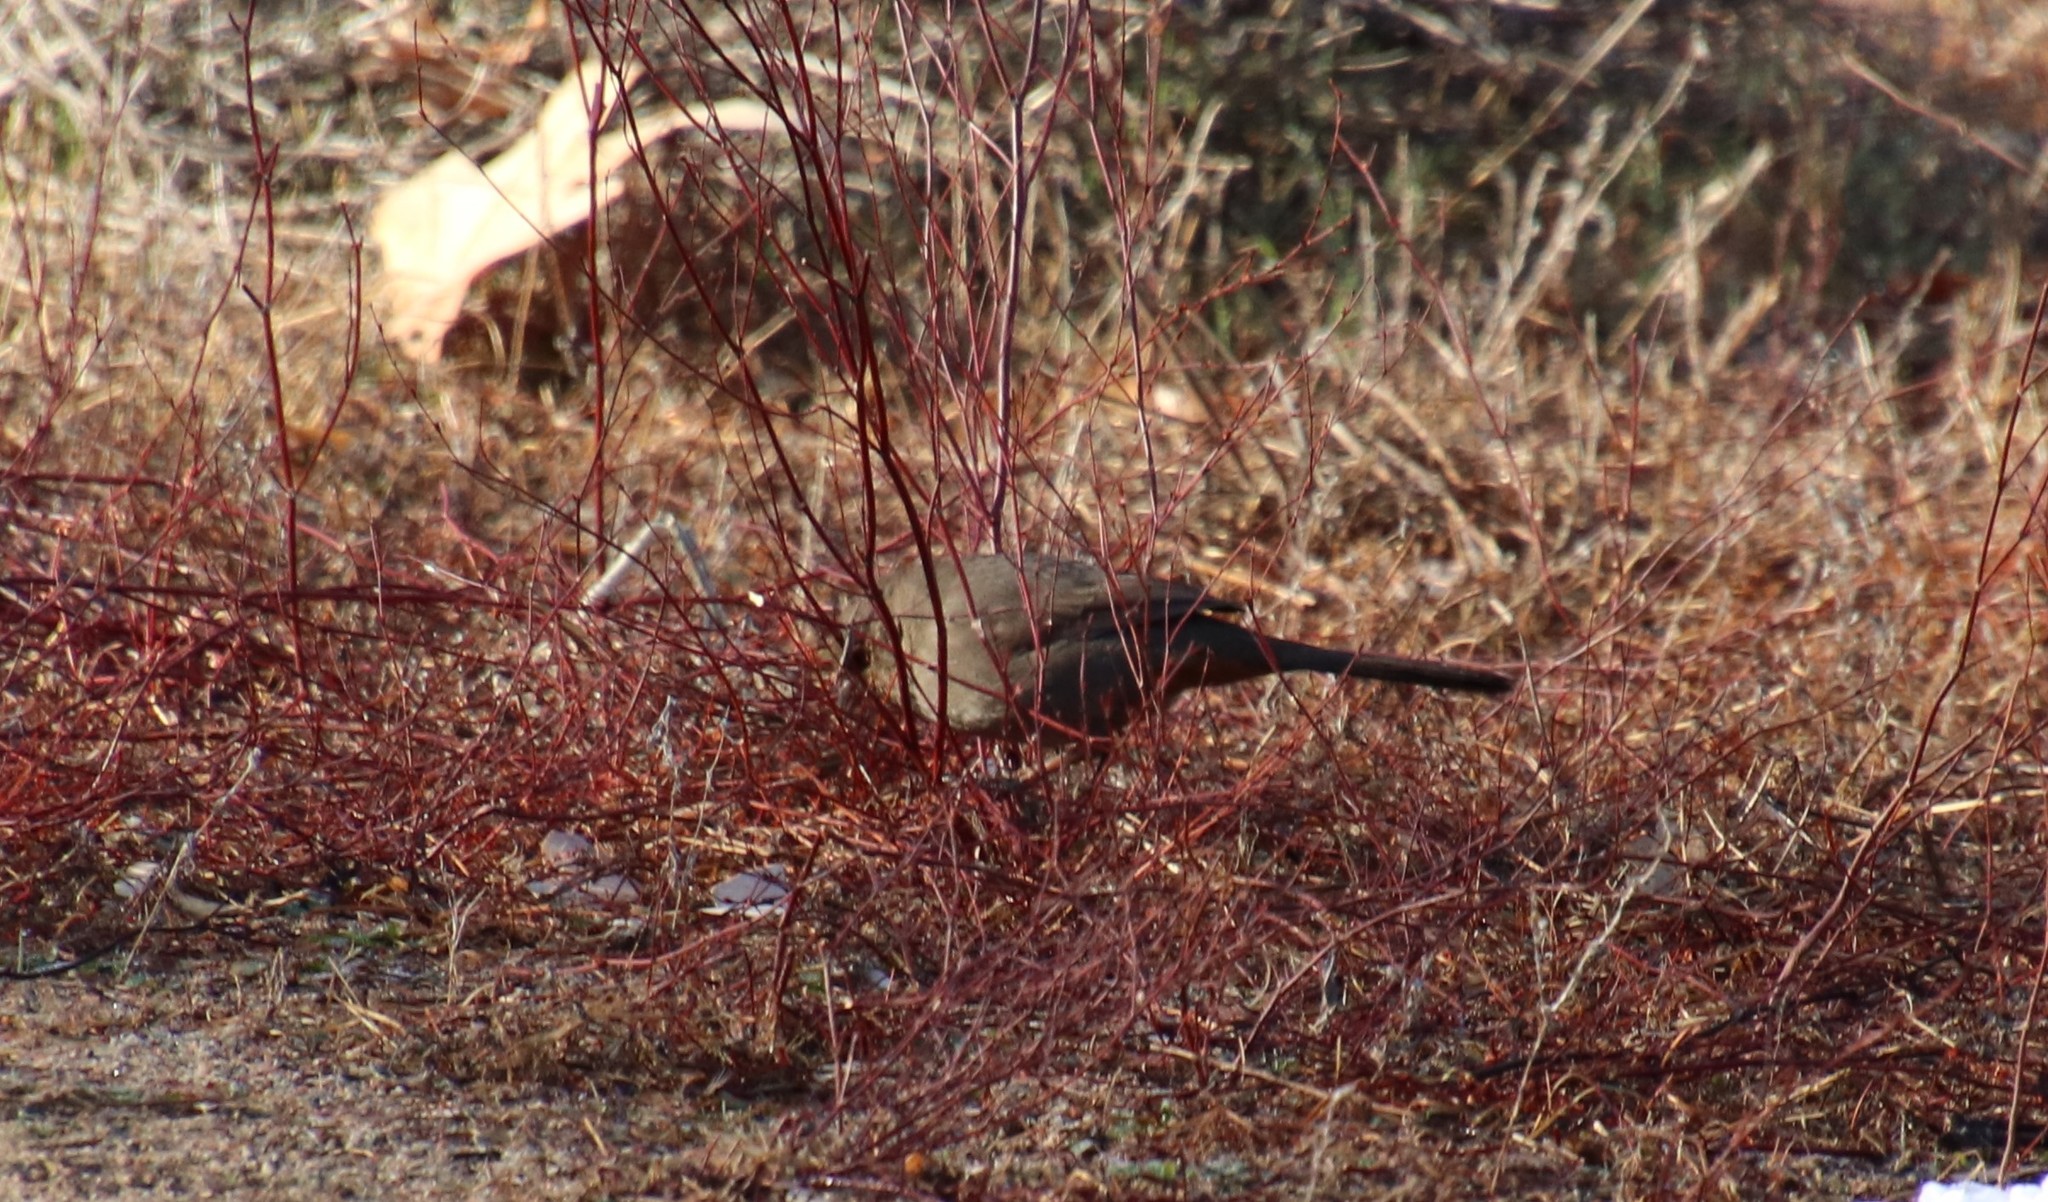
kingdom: Animalia
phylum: Chordata
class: Aves
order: Passeriformes
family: Passerellidae
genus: Melozone
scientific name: Melozone crissalis
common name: California towhee
